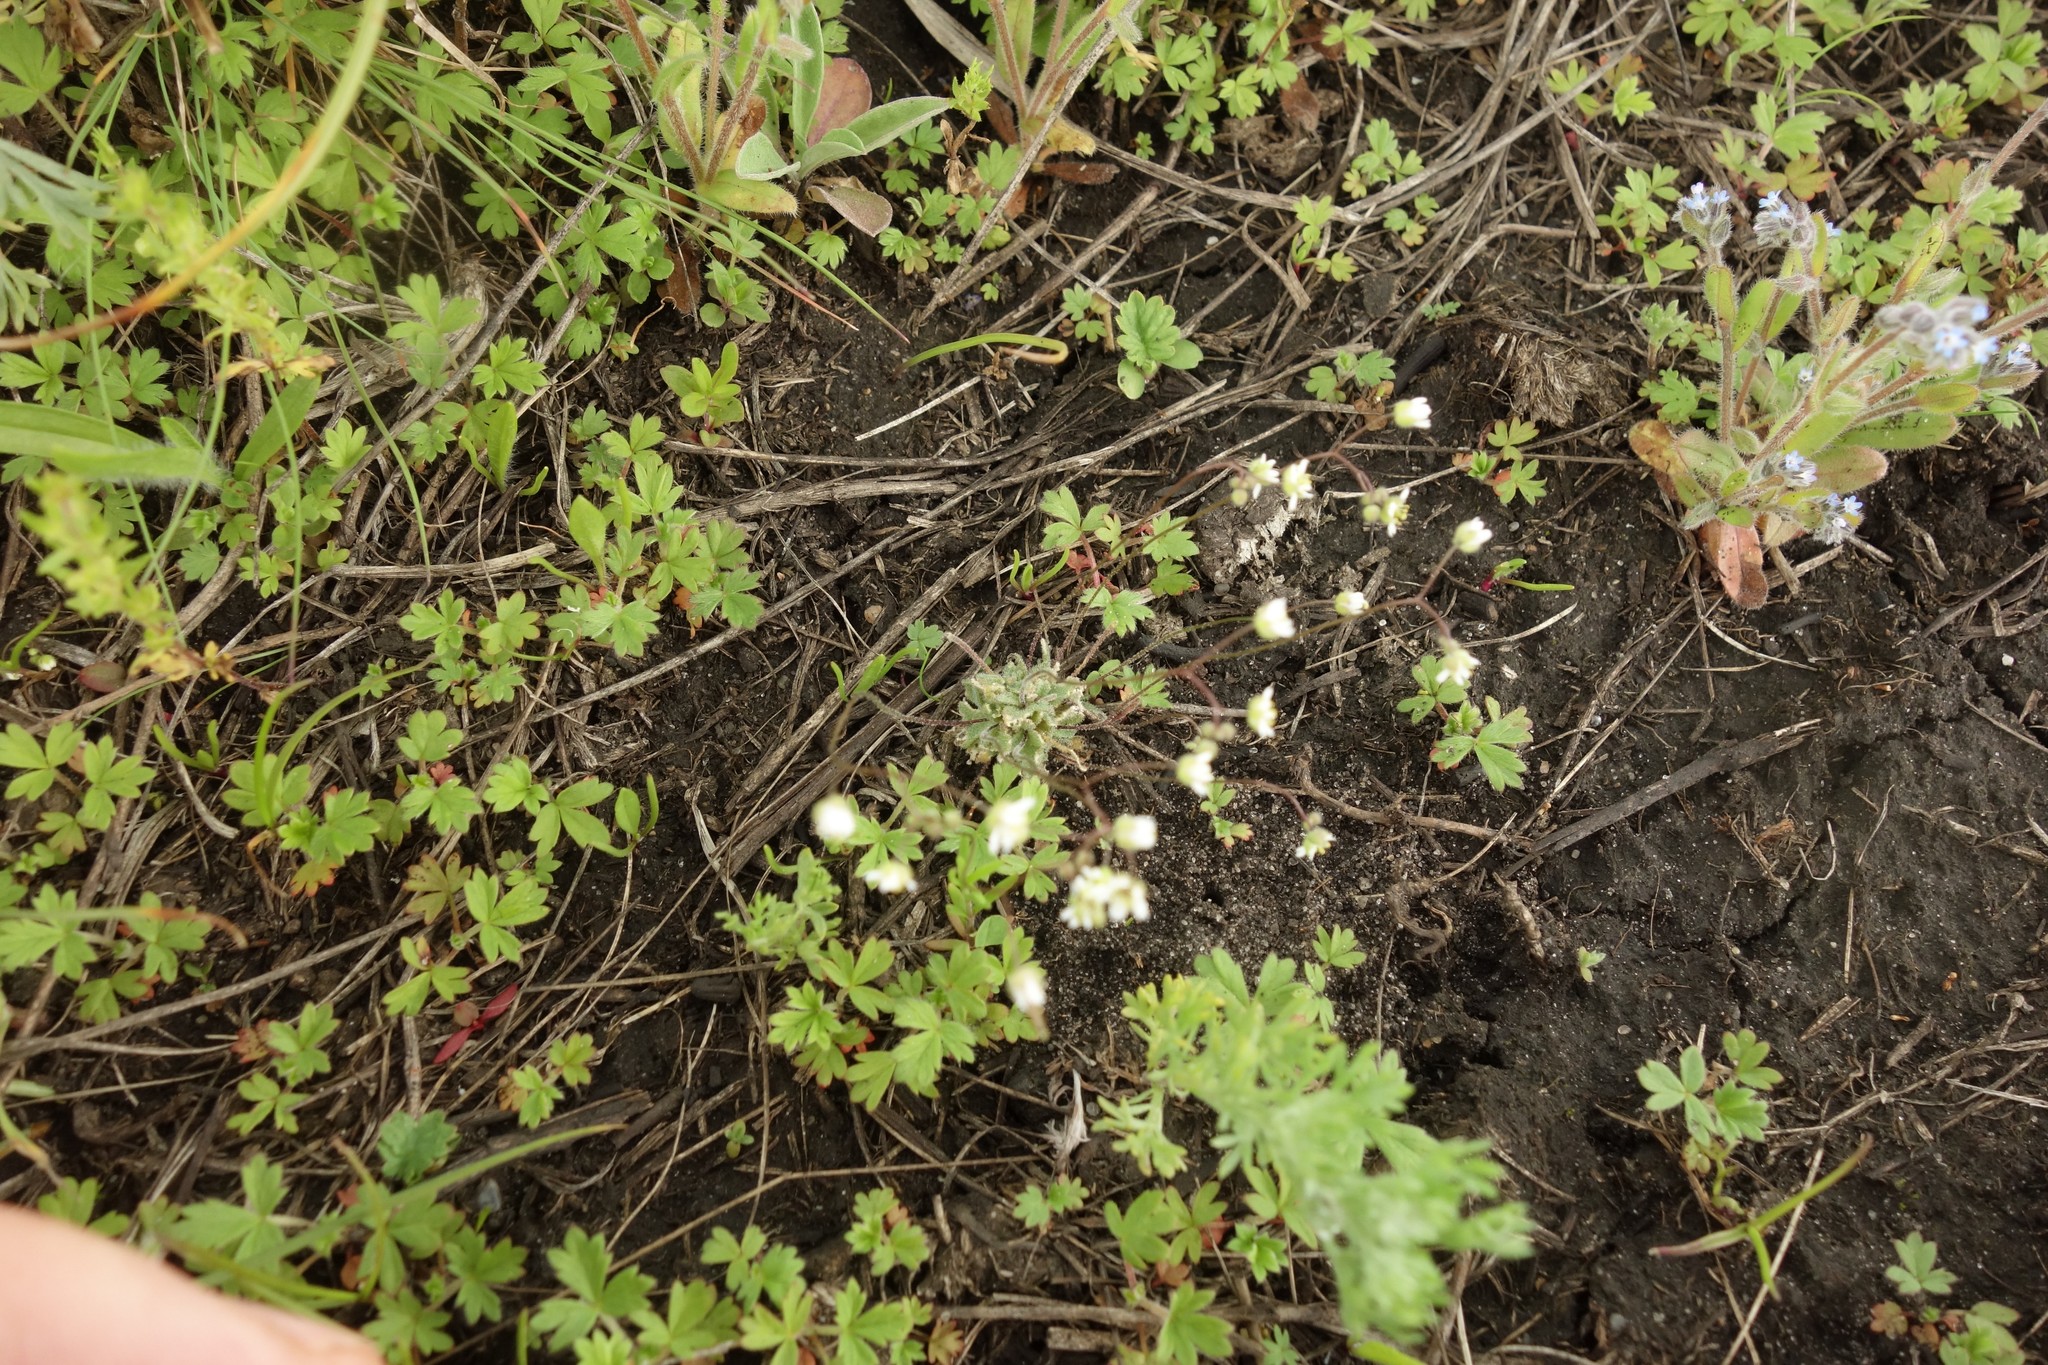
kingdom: Plantae
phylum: Tracheophyta
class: Magnoliopsida
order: Brassicales
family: Brassicaceae
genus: Draba
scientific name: Draba verna
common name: Spring draba
